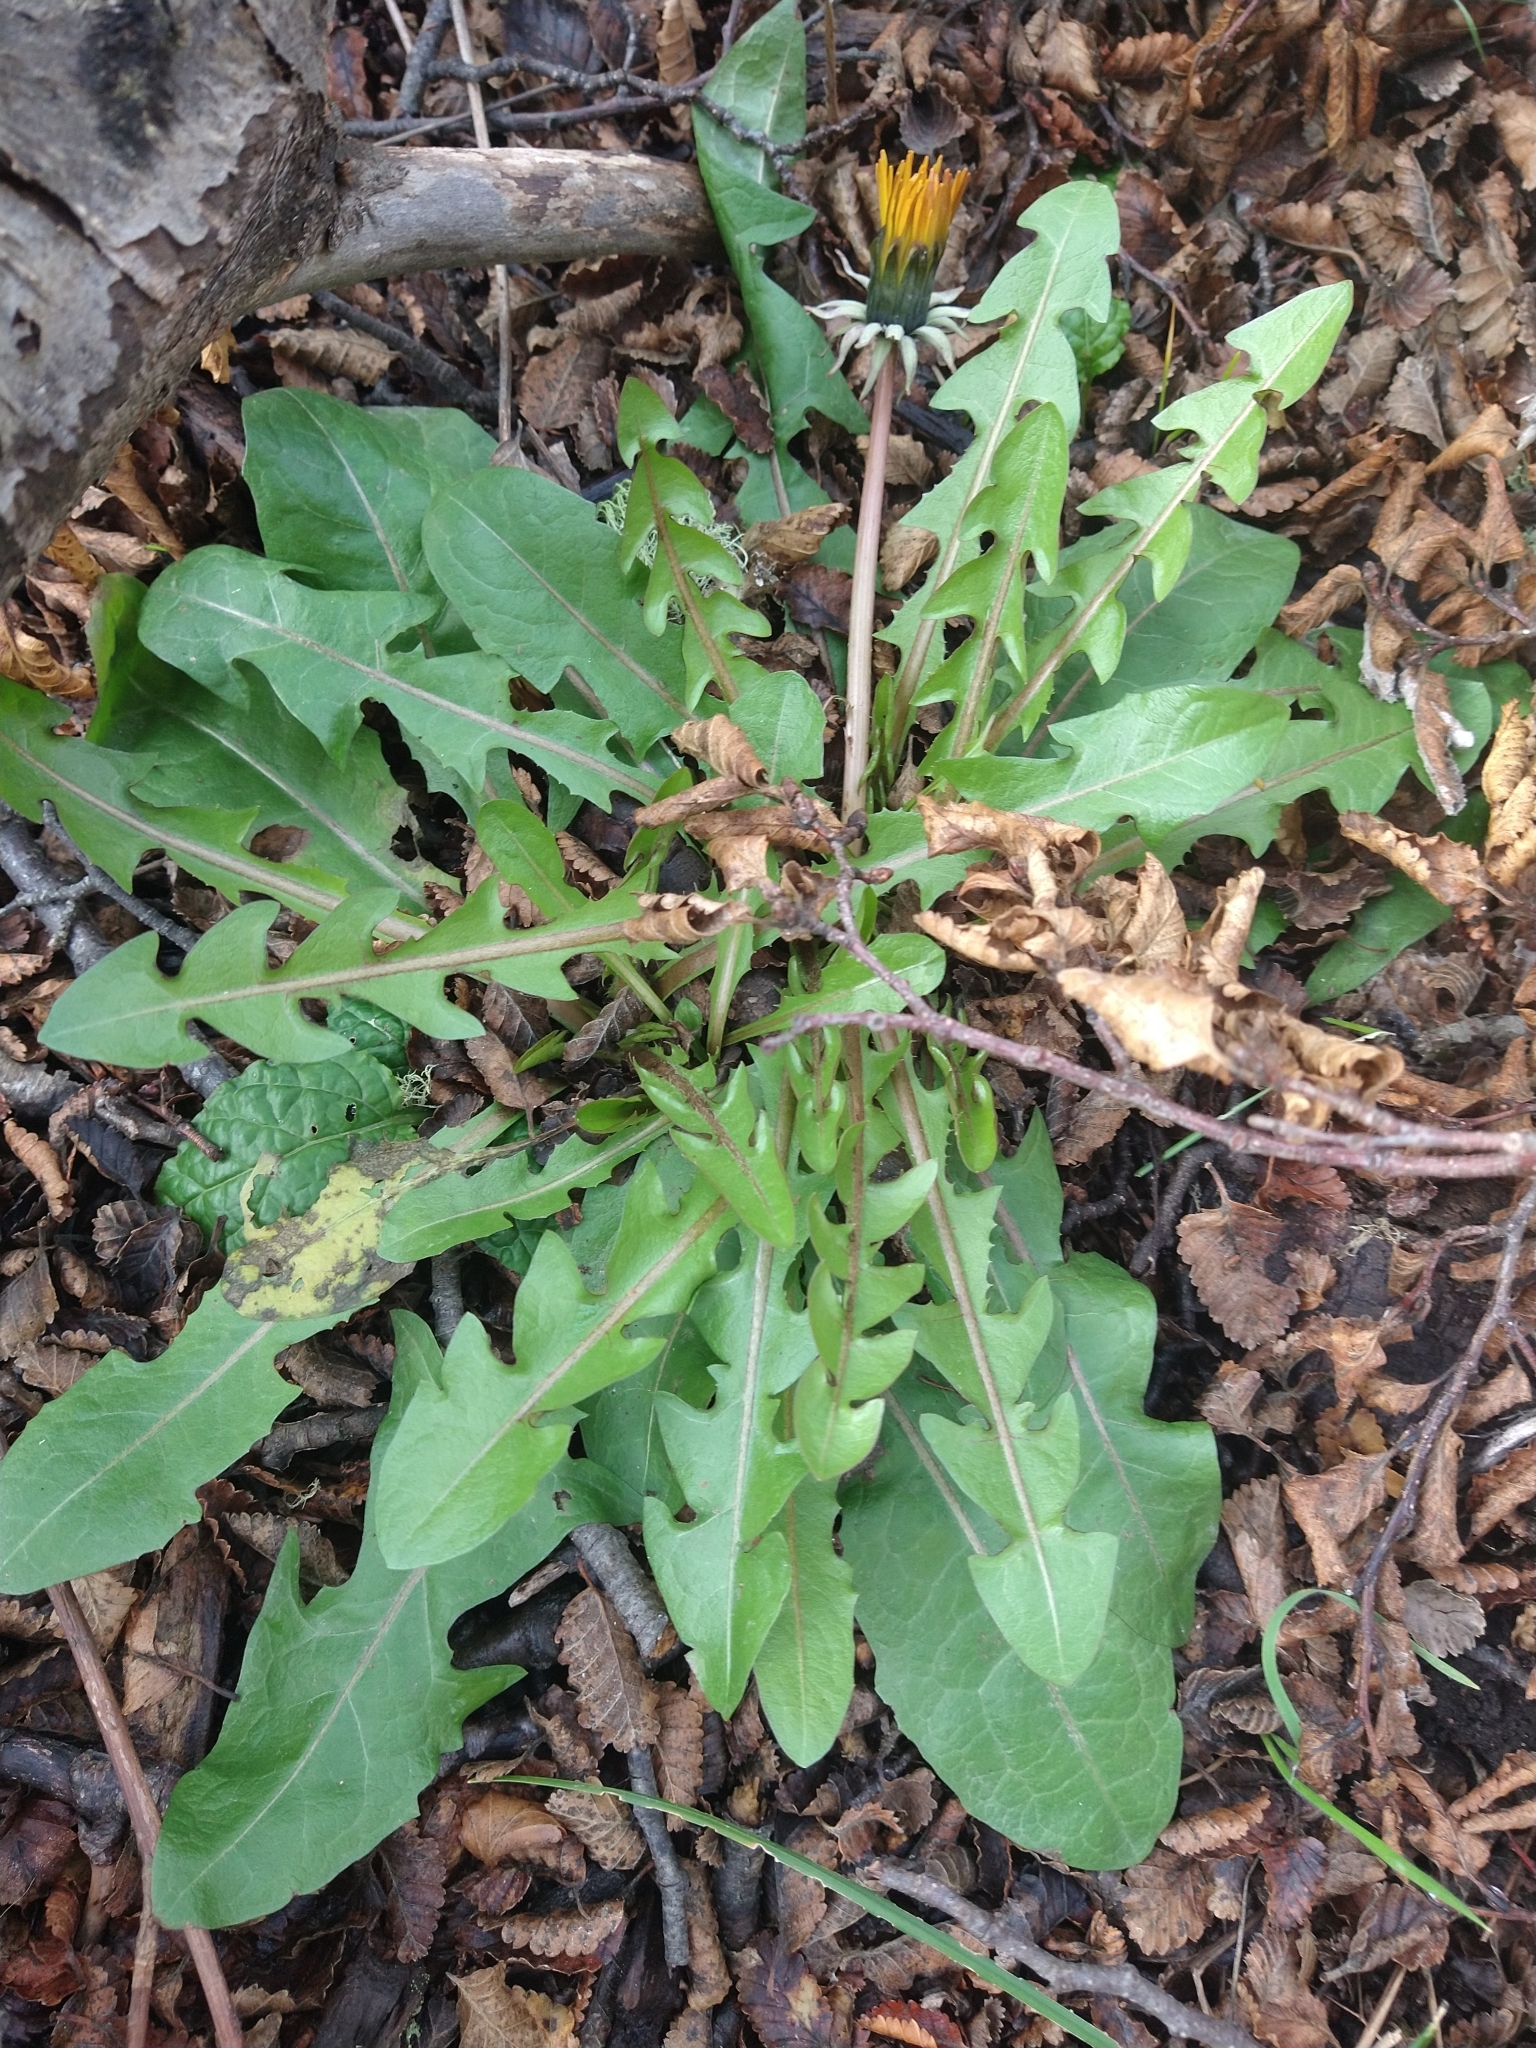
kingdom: Plantae
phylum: Tracheophyta
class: Magnoliopsida
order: Asterales
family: Asteraceae
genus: Taraxacum
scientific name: Taraxacum officinale
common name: Common dandelion
